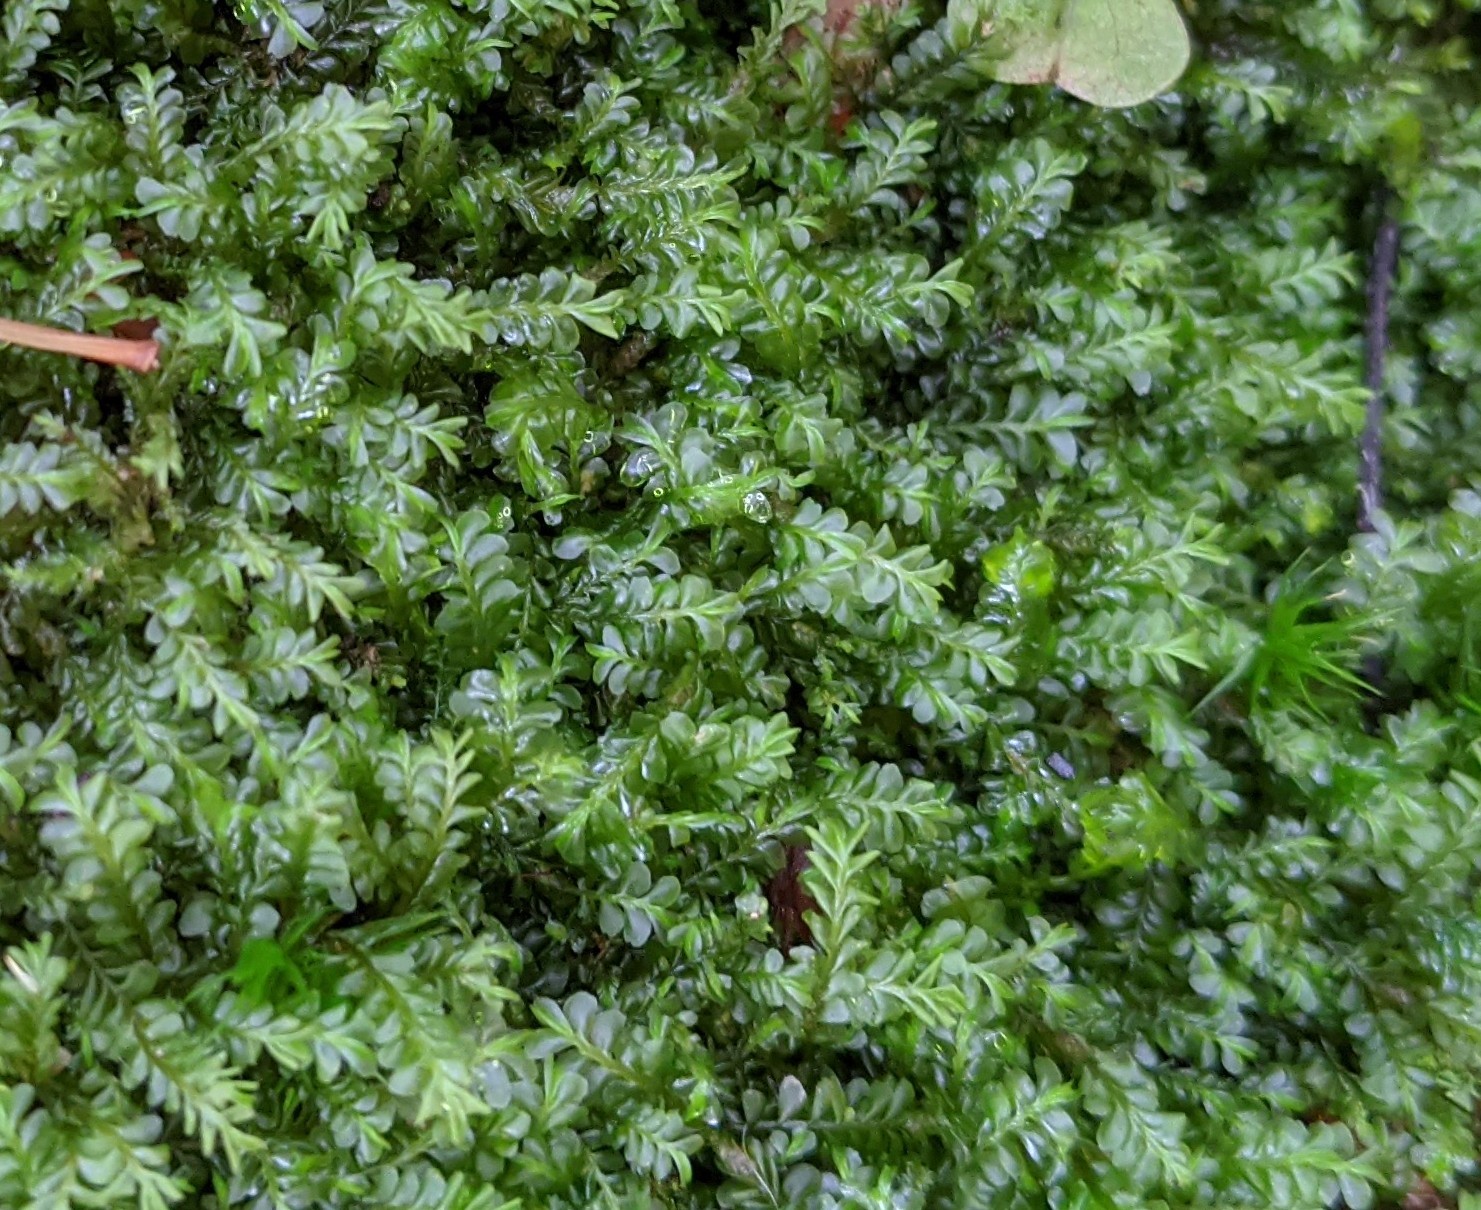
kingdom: Plantae
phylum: Marchantiophyta
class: Jungermanniopsida
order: Jungermanniales
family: Plagiochilaceae
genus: Plagiochila
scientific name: Plagiochila porelloides
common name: Lesser featherwort
